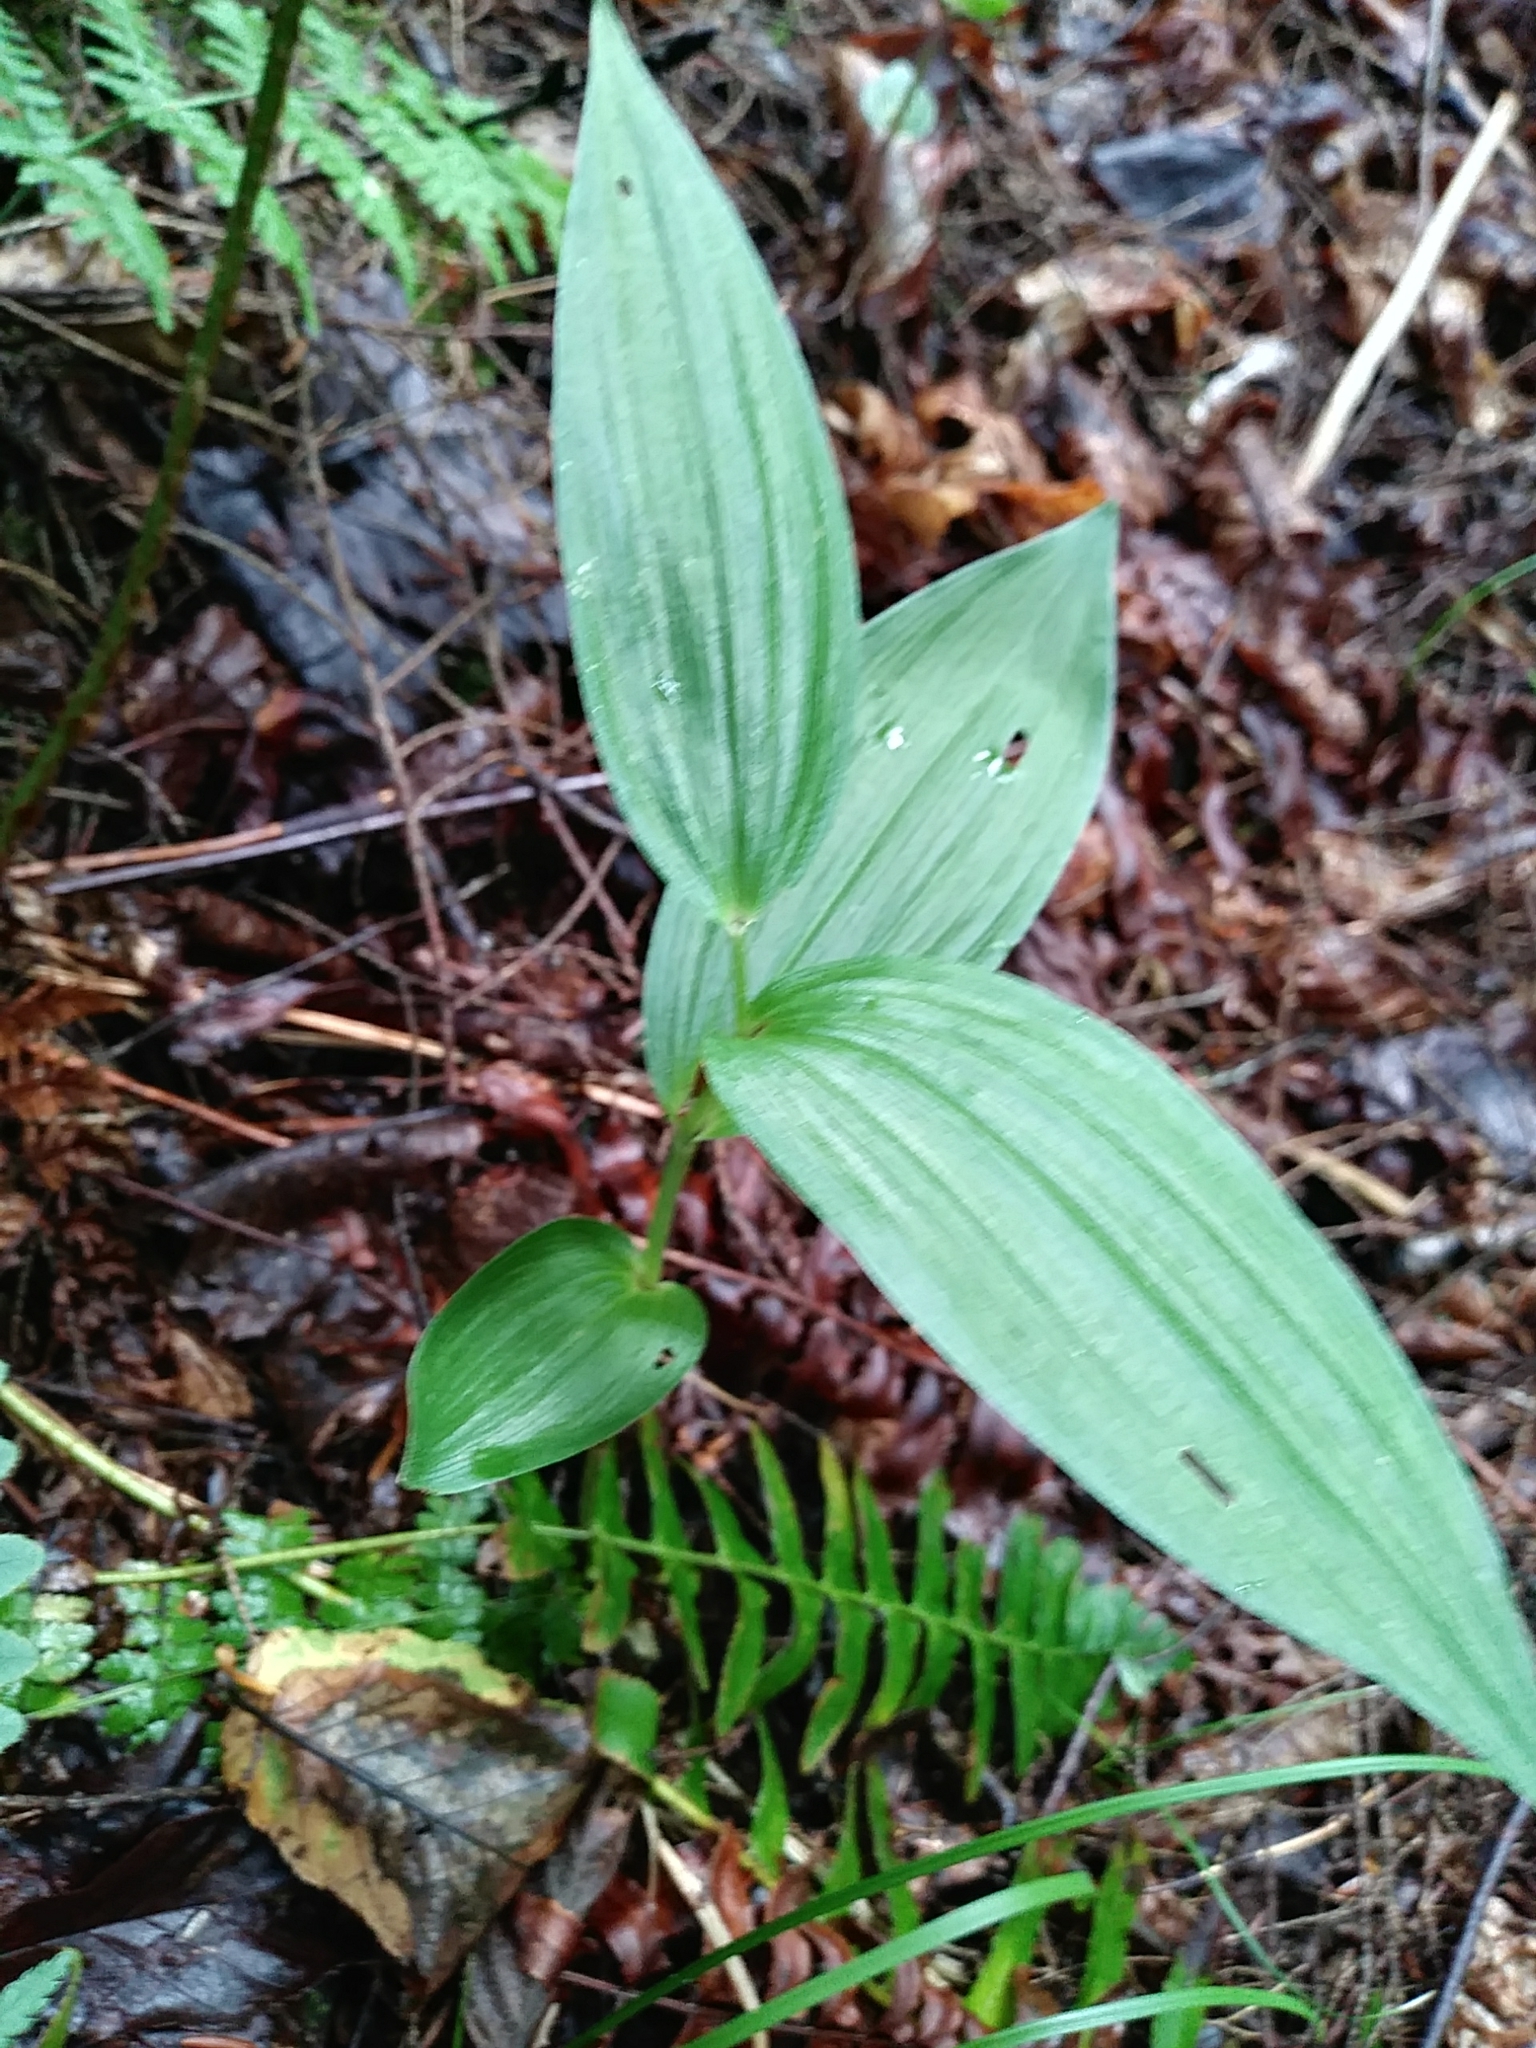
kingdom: Plantae
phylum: Tracheophyta
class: Liliopsida
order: Asparagales
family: Orchidaceae
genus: Epipactis
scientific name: Epipactis helleborine
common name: Broad-leaved helleborine
